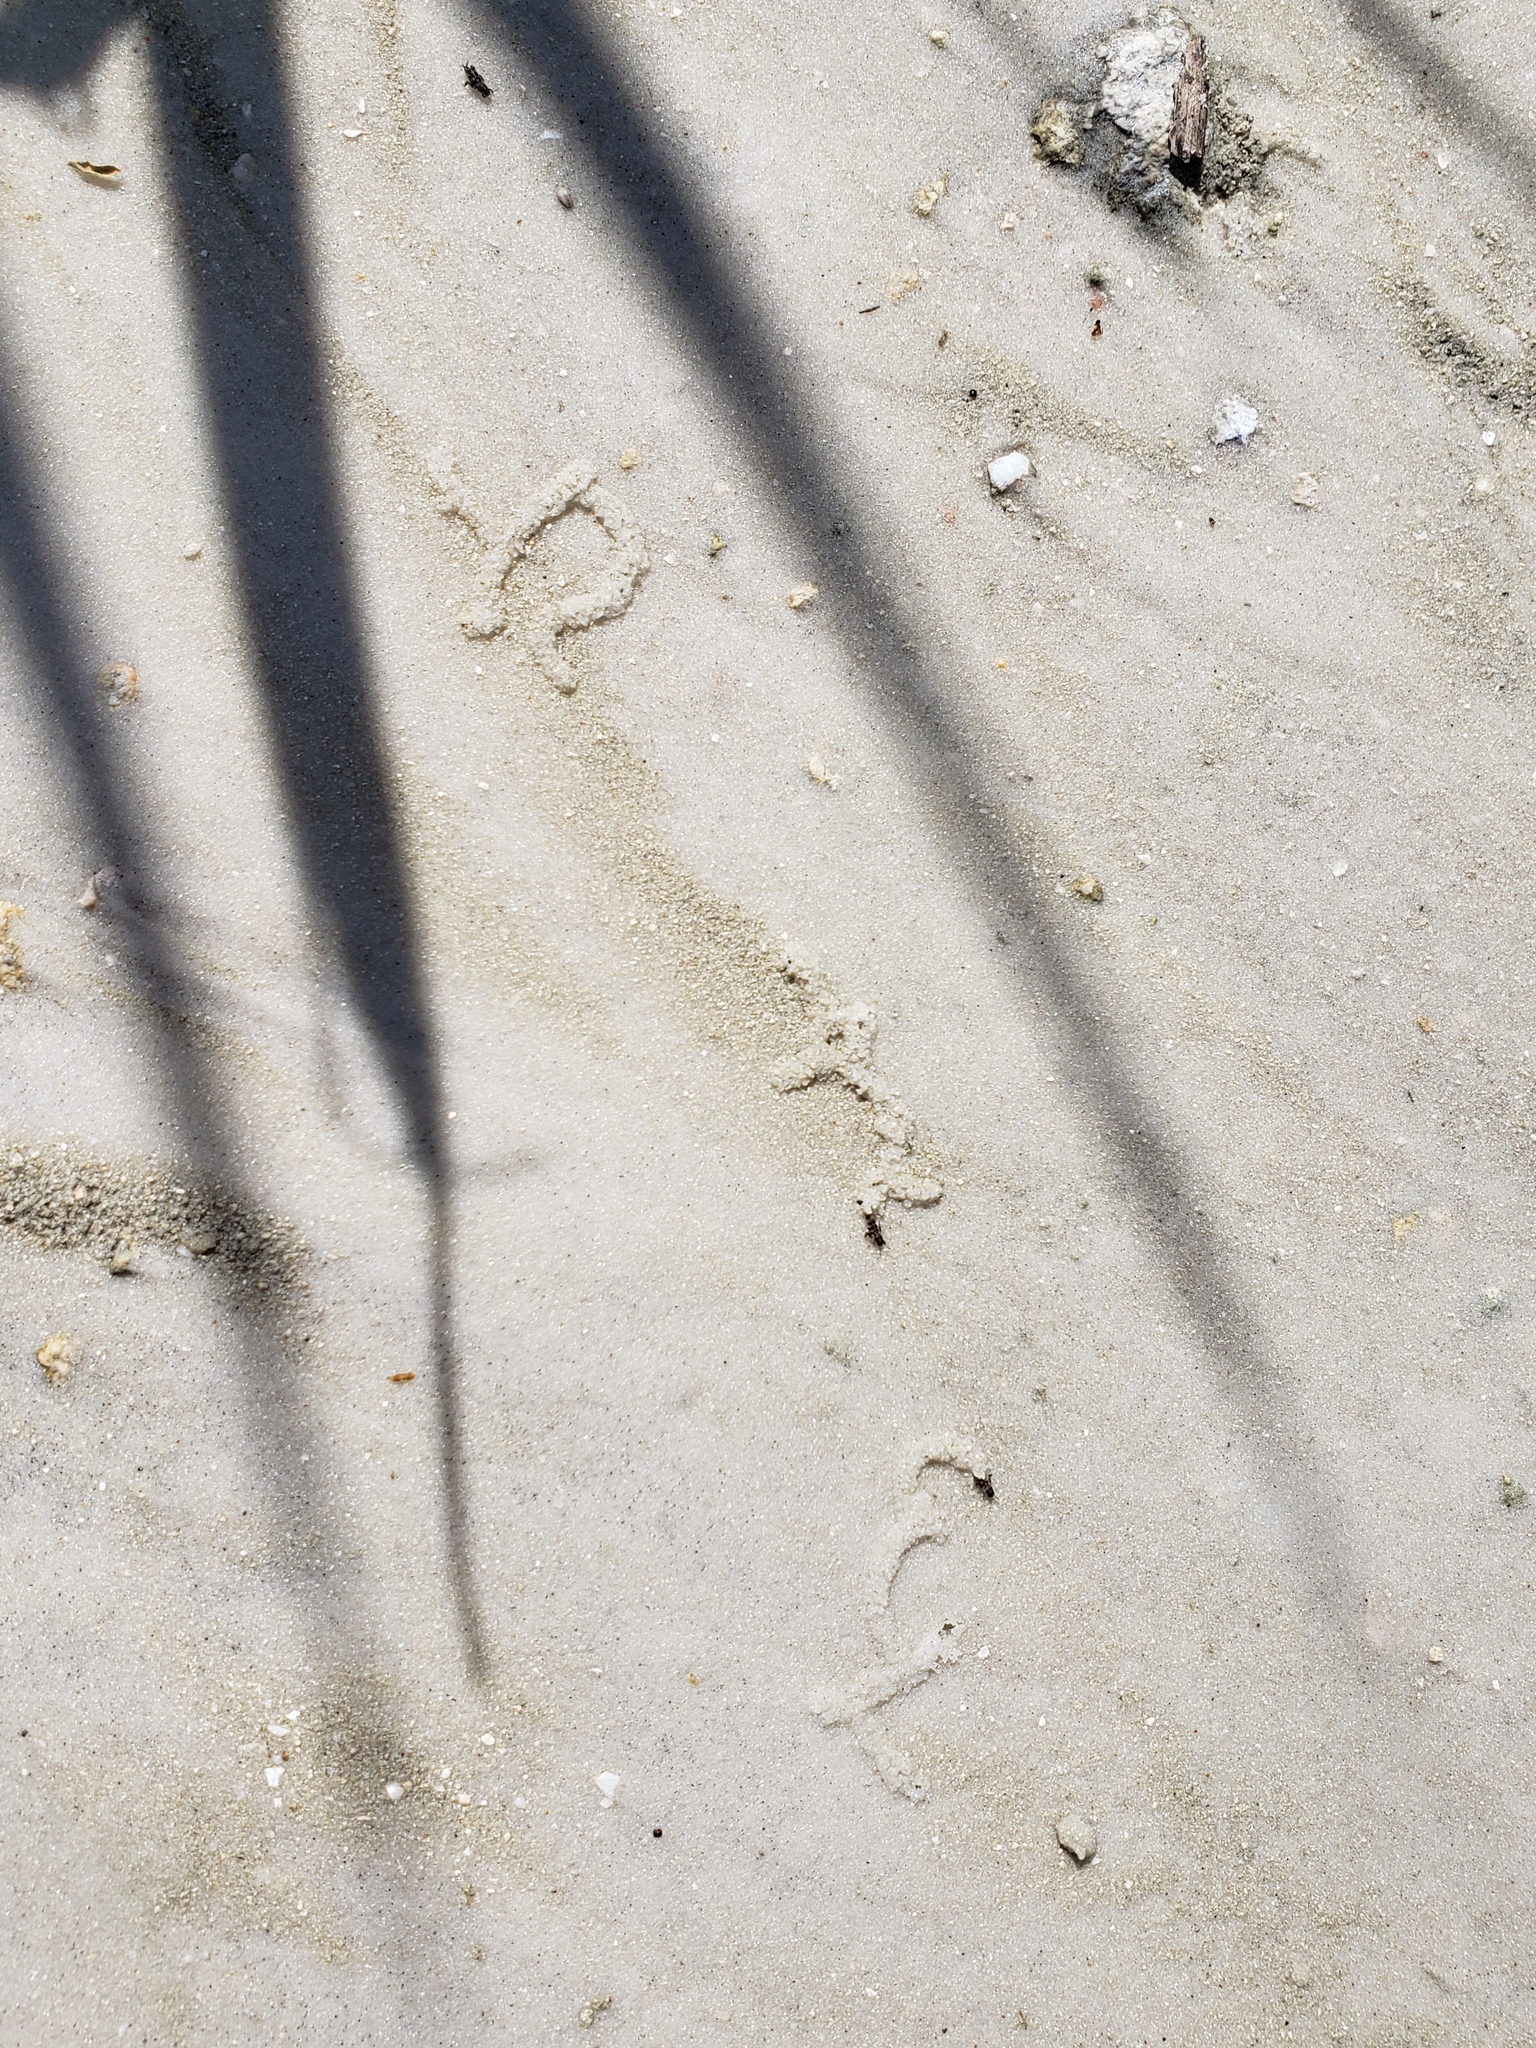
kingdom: Animalia
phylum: Arthropoda
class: Insecta
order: Orthoptera
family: Tridactylidae
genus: Ellipes
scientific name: Ellipes minuta
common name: Minute pygmy locust
